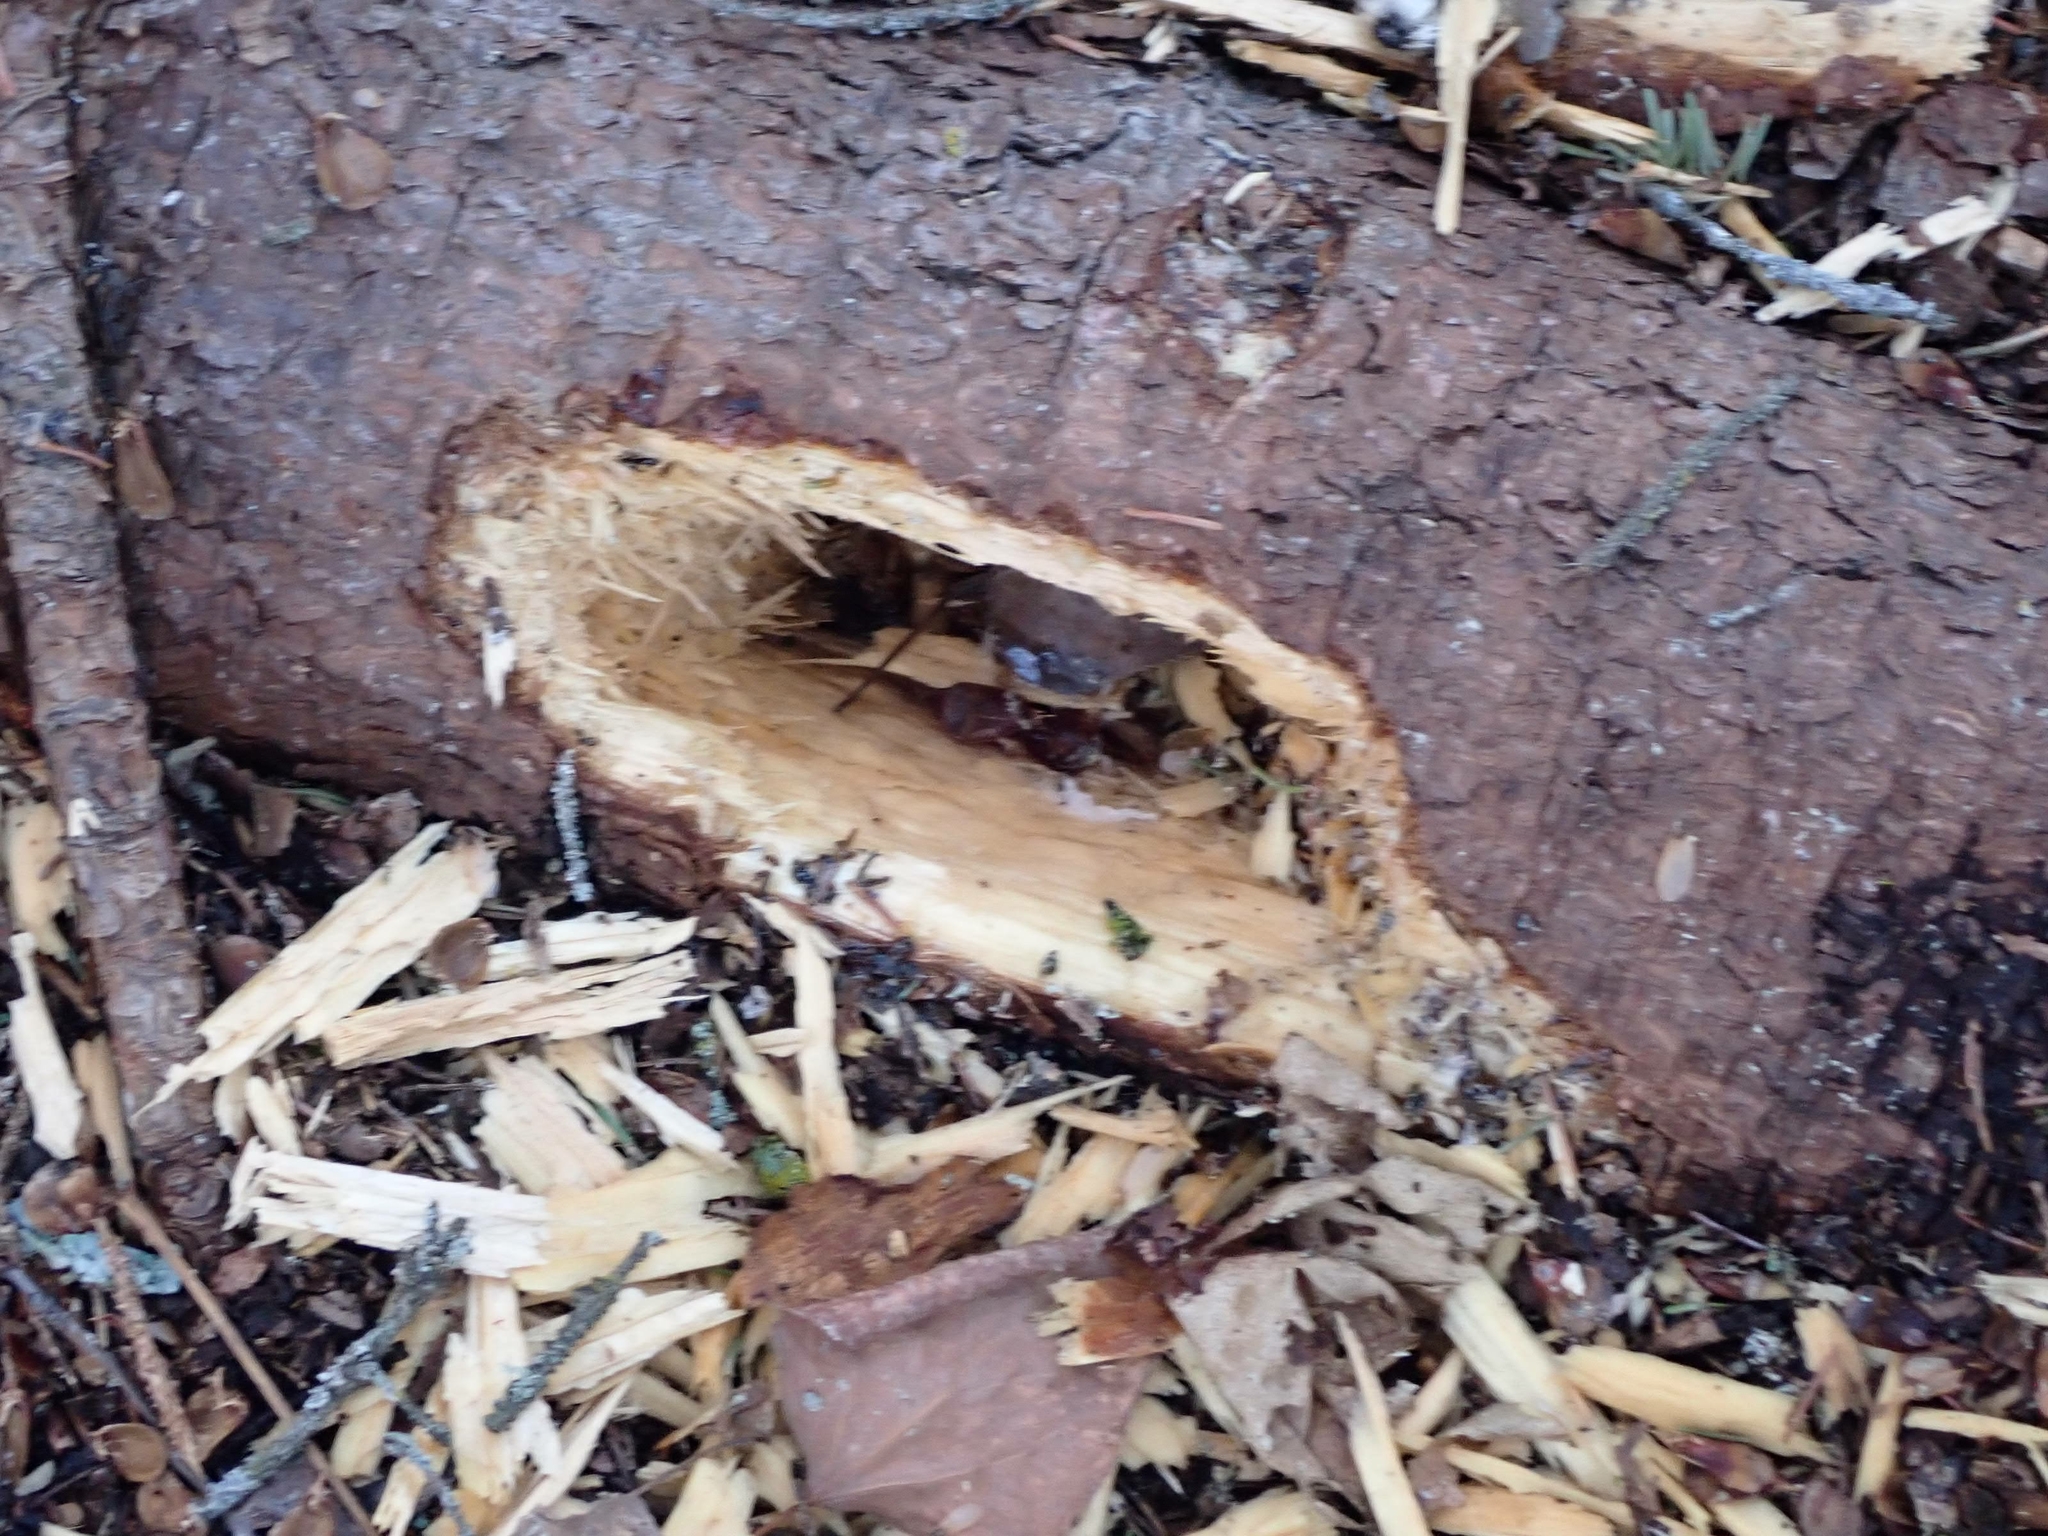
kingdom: Animalia
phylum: Chordata
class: Aves
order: Piciformes
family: Picidae
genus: Dryocopus
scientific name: Dryocopus pileatus
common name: Pileated woodpecker
